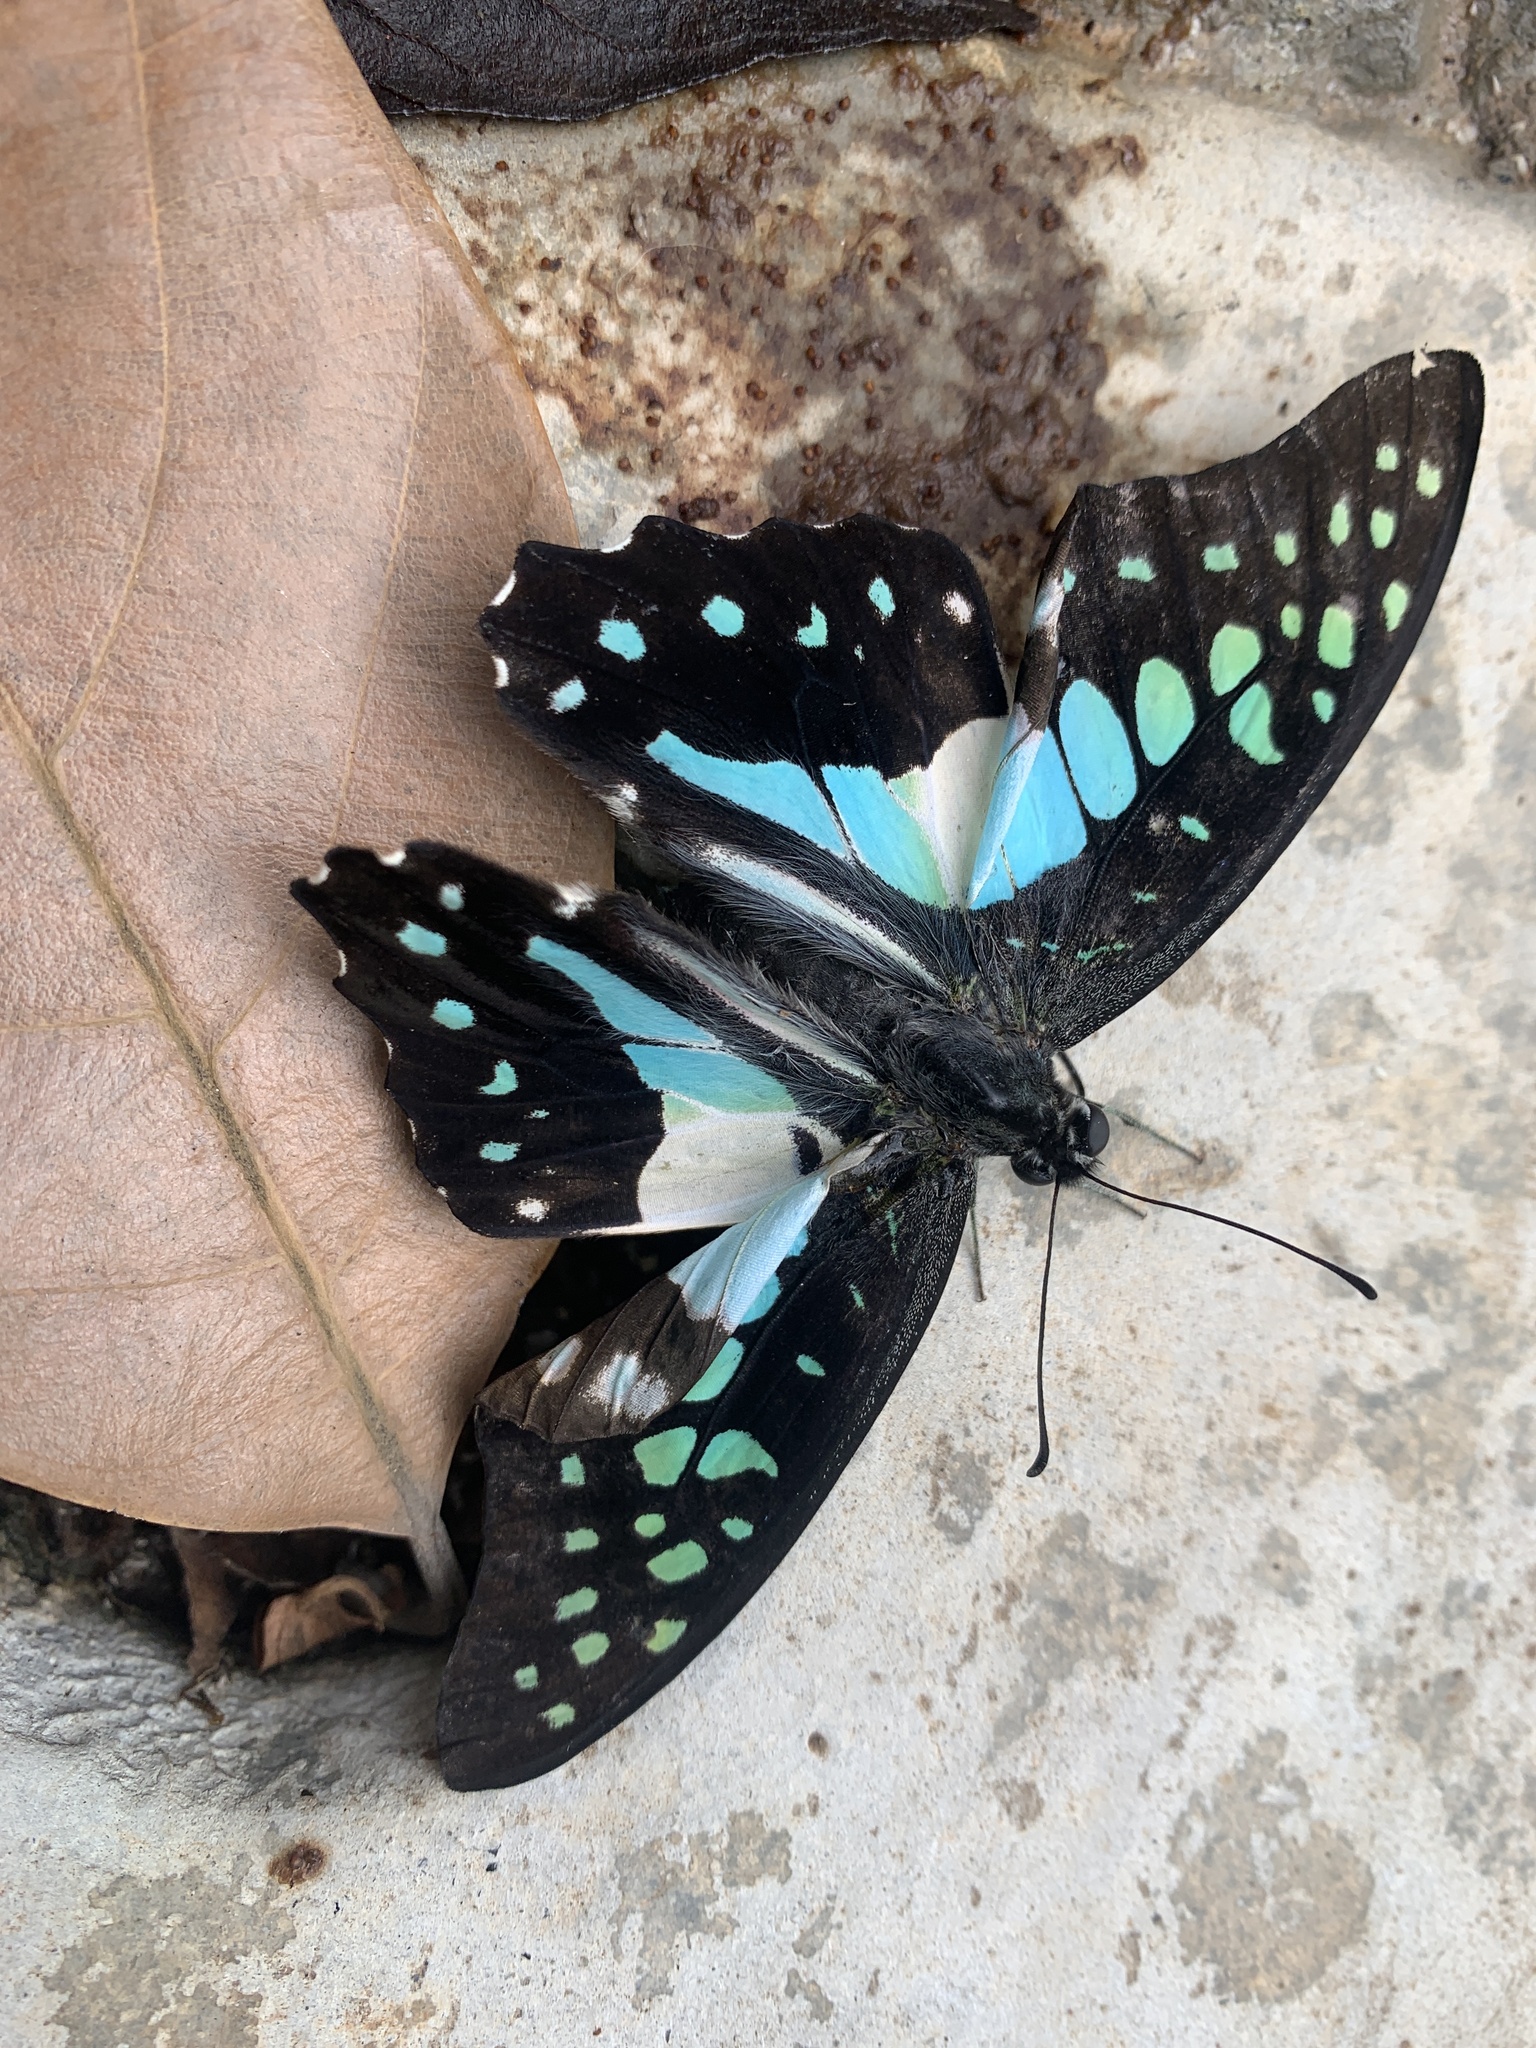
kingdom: Animalia
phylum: Arthropoda
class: Insecta
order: Lepidoptera
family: Papilionidae
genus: Graphium
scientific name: Graphium doson
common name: Common jay
